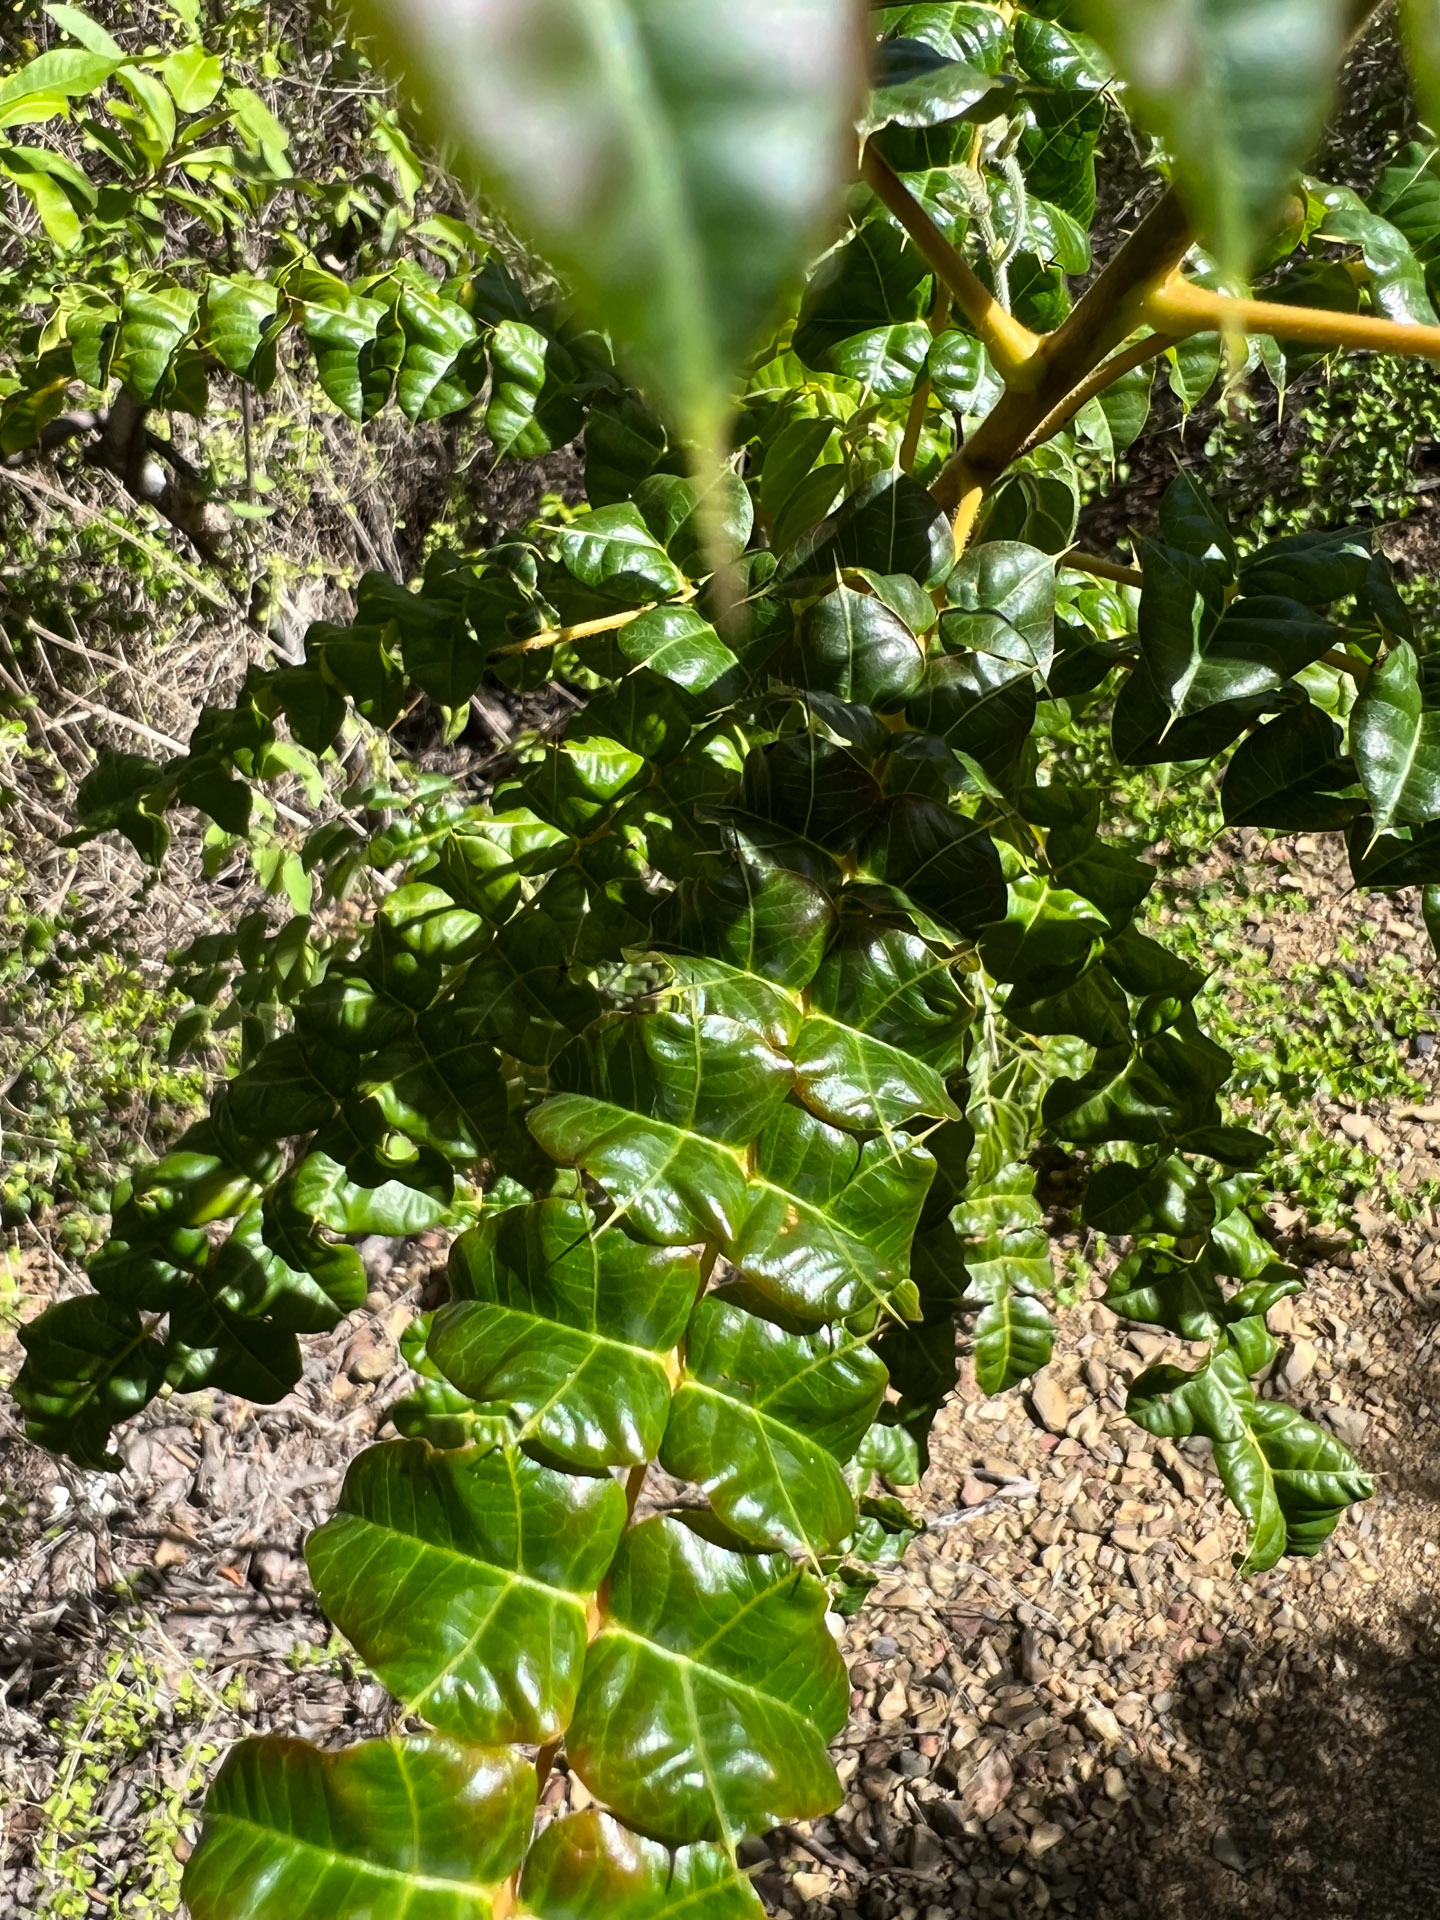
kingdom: Plantae
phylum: Tracheophyta
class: Magnoliopsida
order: Sapindales
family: Anacardiaceae
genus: Comocladia
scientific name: Comocladia dodonaea
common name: Poison ash
